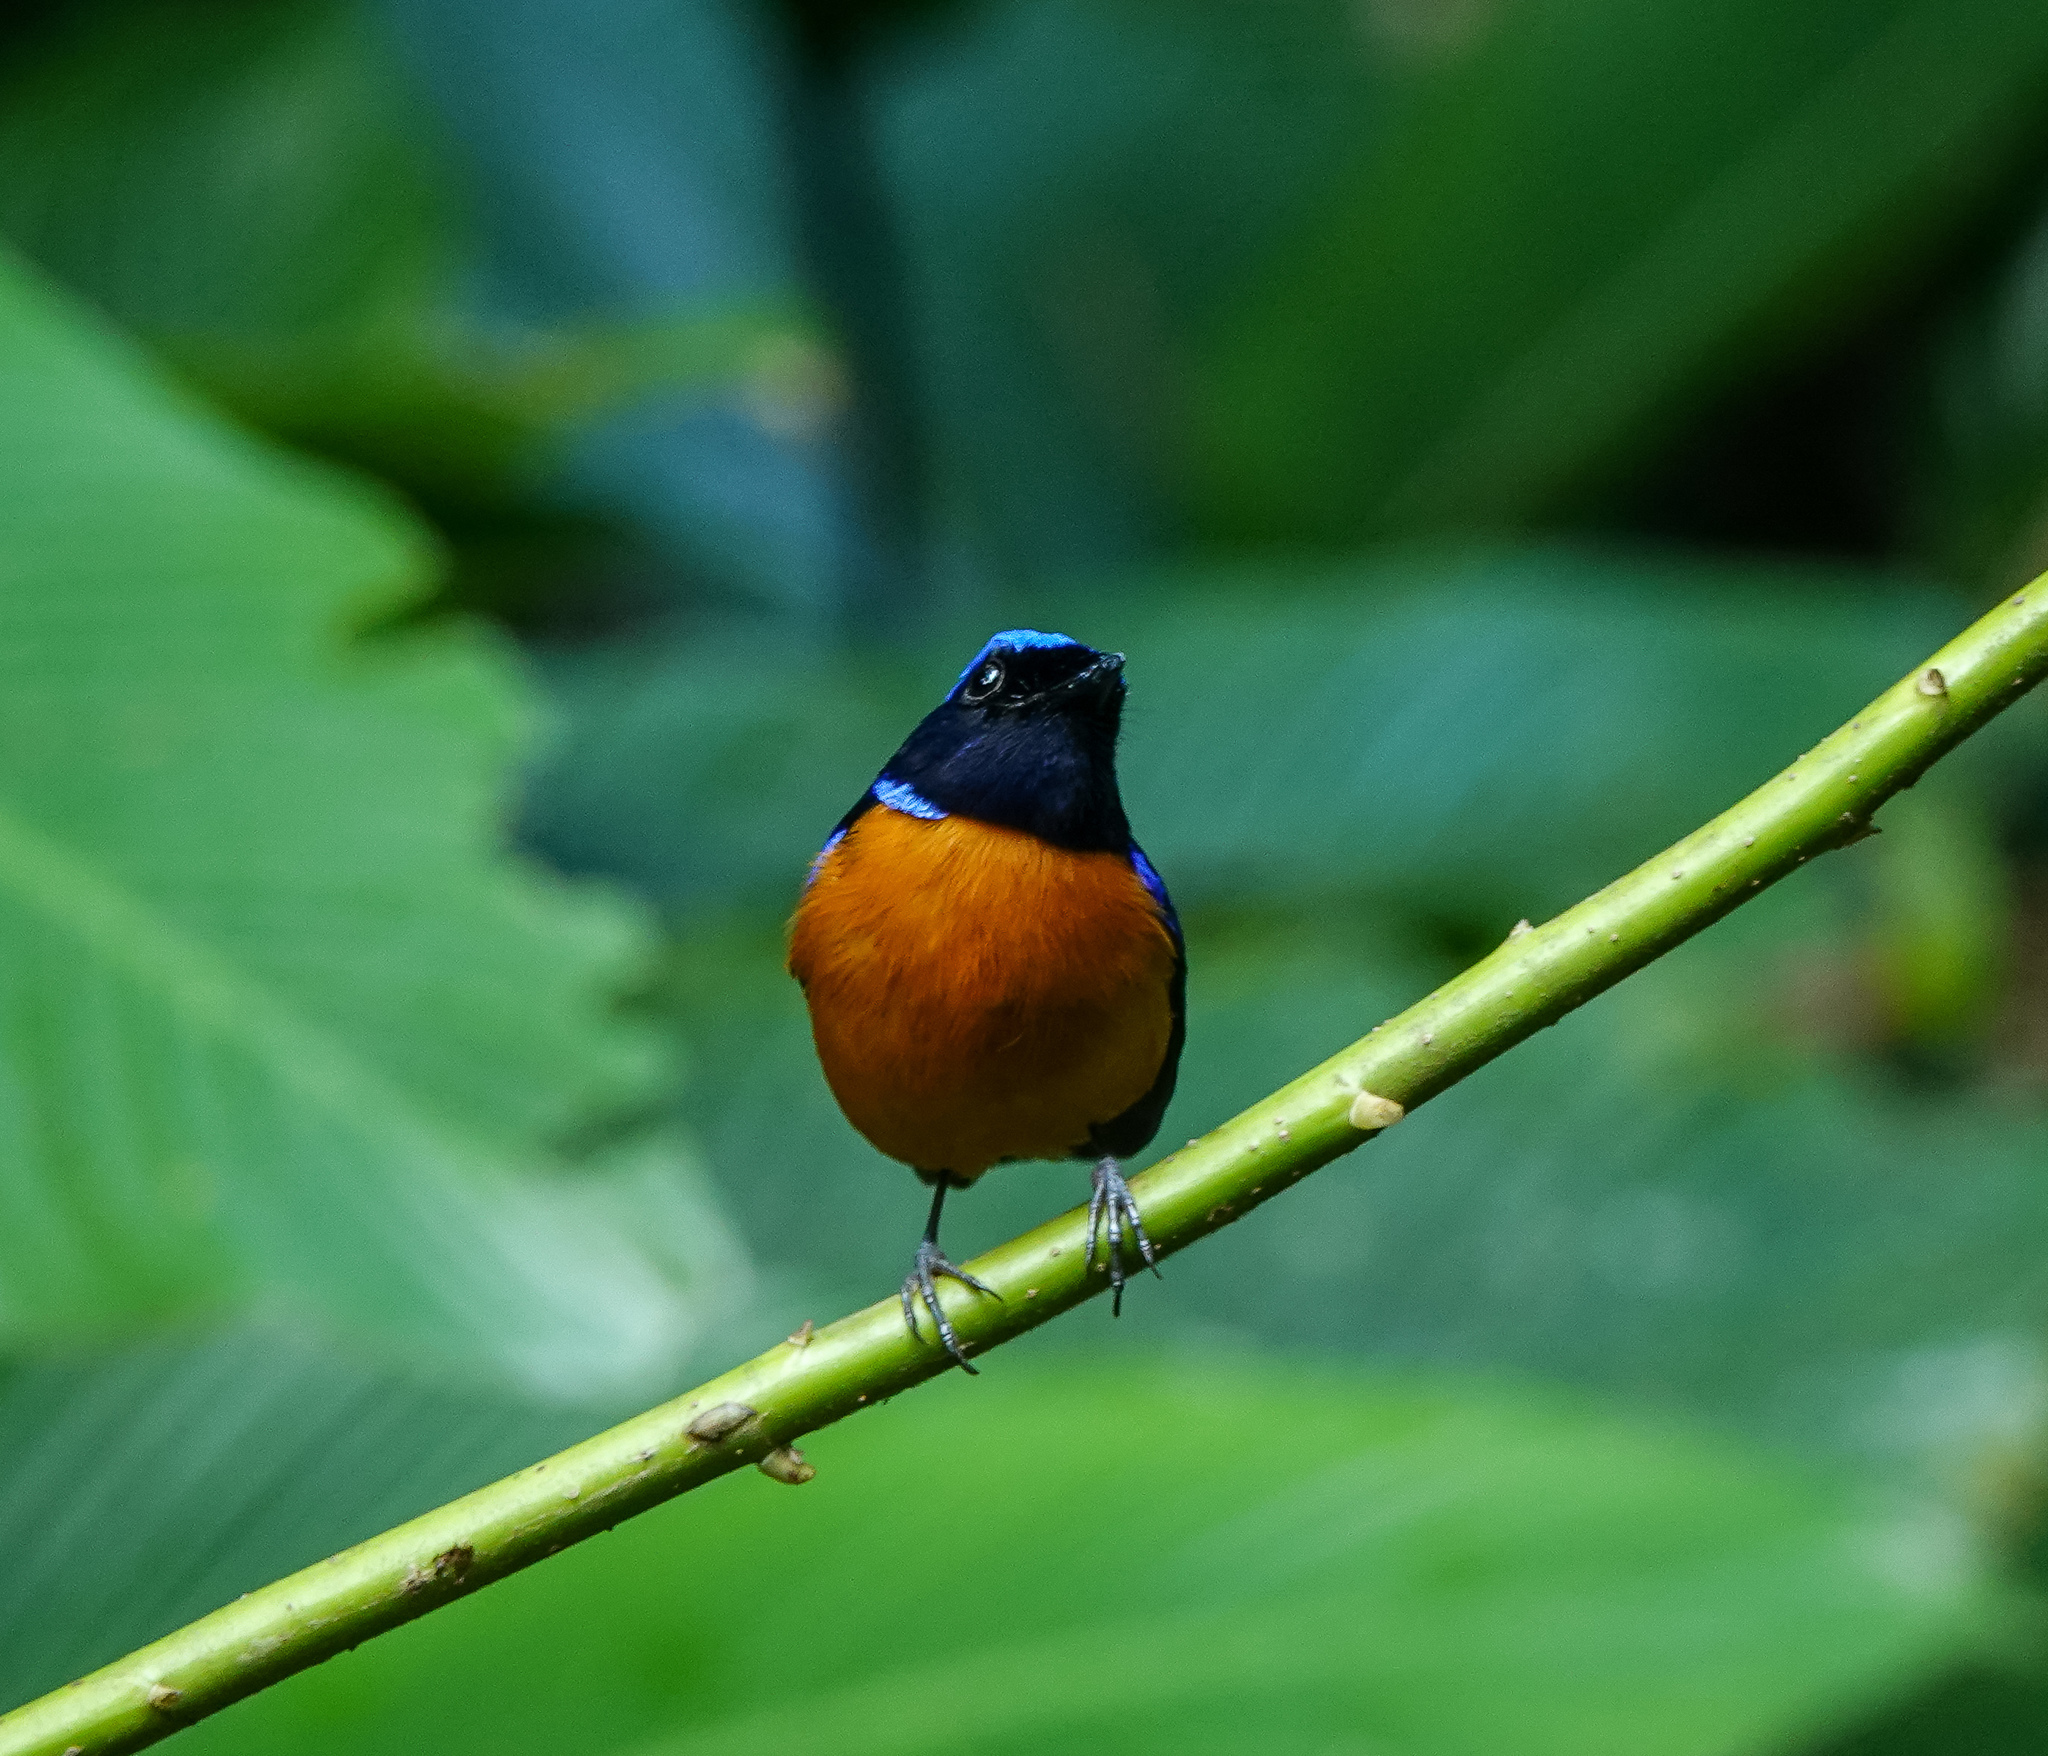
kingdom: Animalia
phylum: Chordata
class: Aves
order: Passeriformes
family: Muscicapidae
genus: Niltava
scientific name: Niltava sundara
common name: Rufous-bellied niltava
